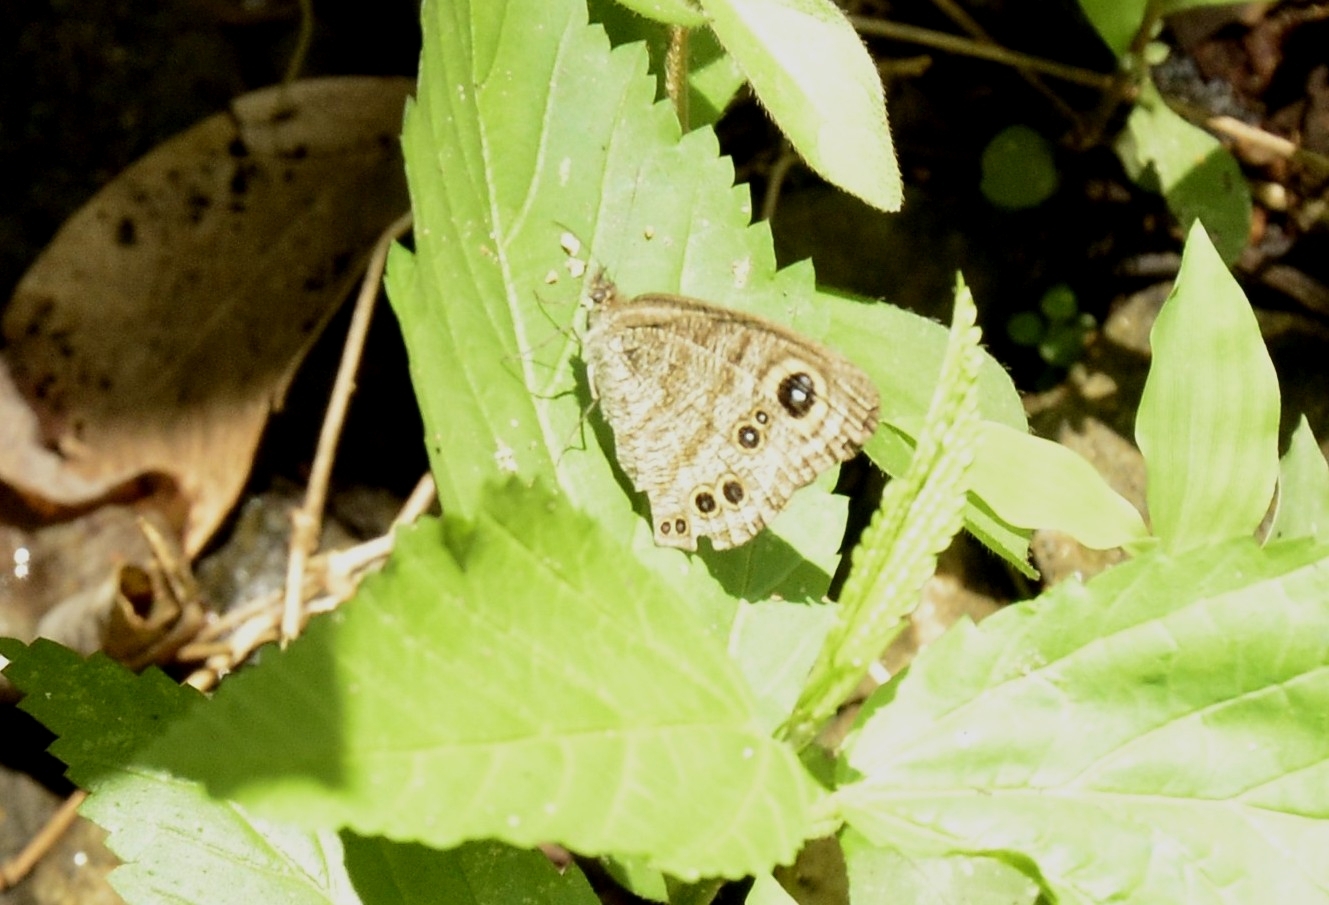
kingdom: Animalia
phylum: Arthropoda
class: Insecta
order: Lepidoptera
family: Nymphalidae
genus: Ypthima
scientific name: Ypthima baldus
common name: Common five-ring
